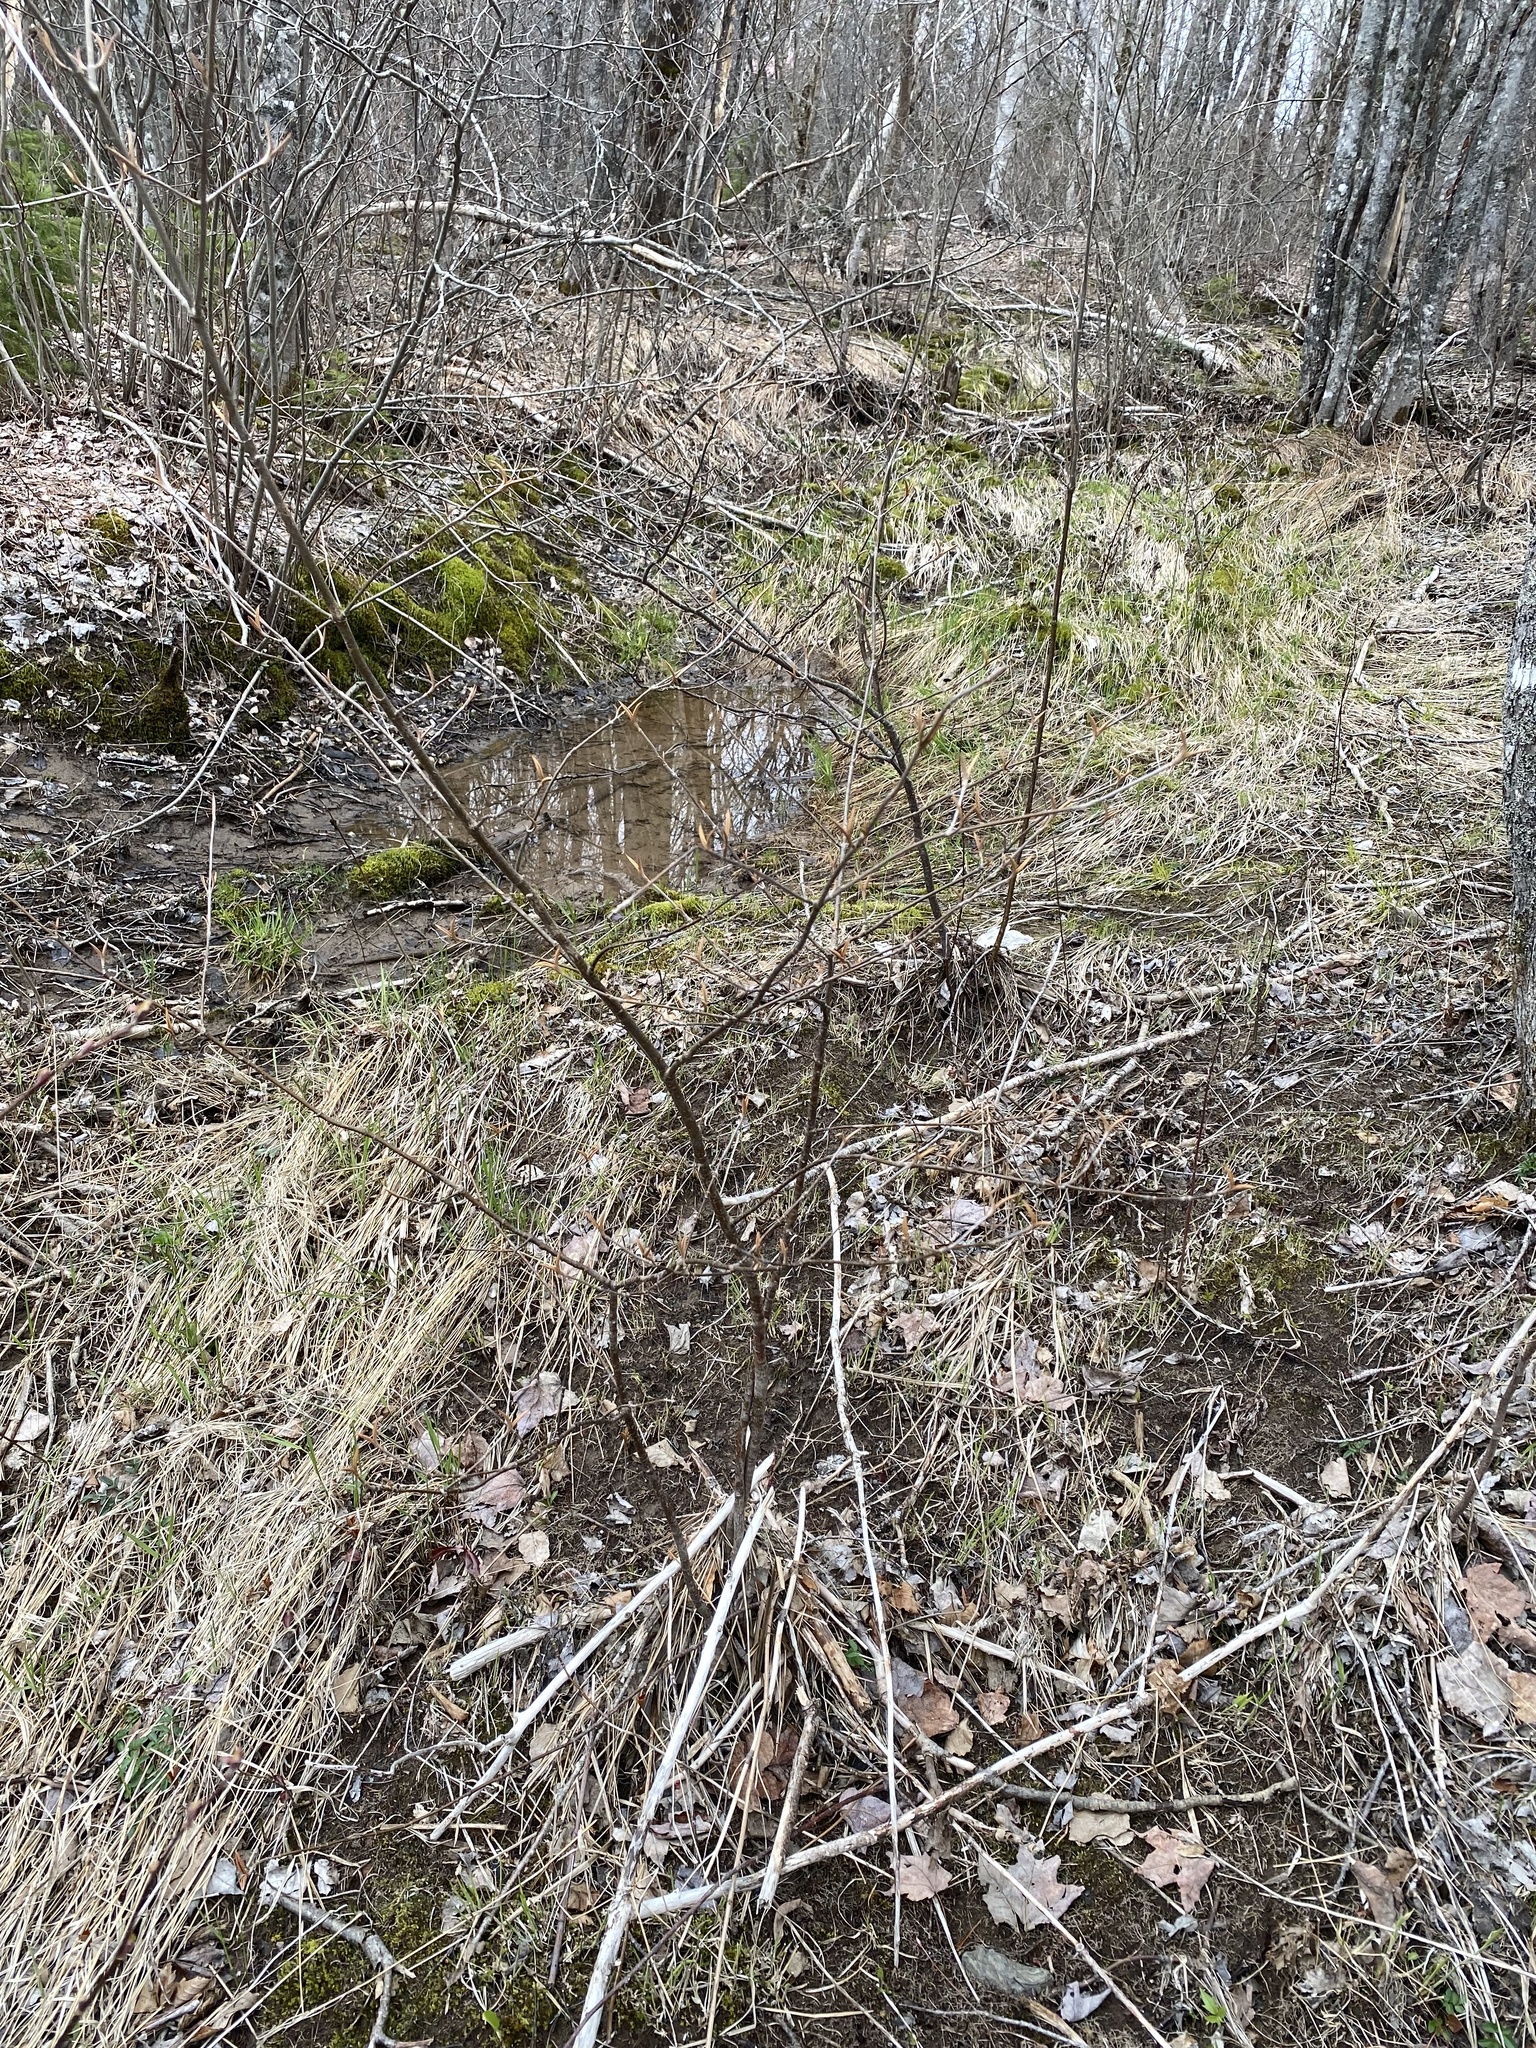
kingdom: Plantae
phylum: Tracheophyta
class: Magnoliopsida
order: Dipsacales
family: Viburnaceae
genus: Viburnum
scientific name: Viburnum cassinoides
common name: Swamp haw
